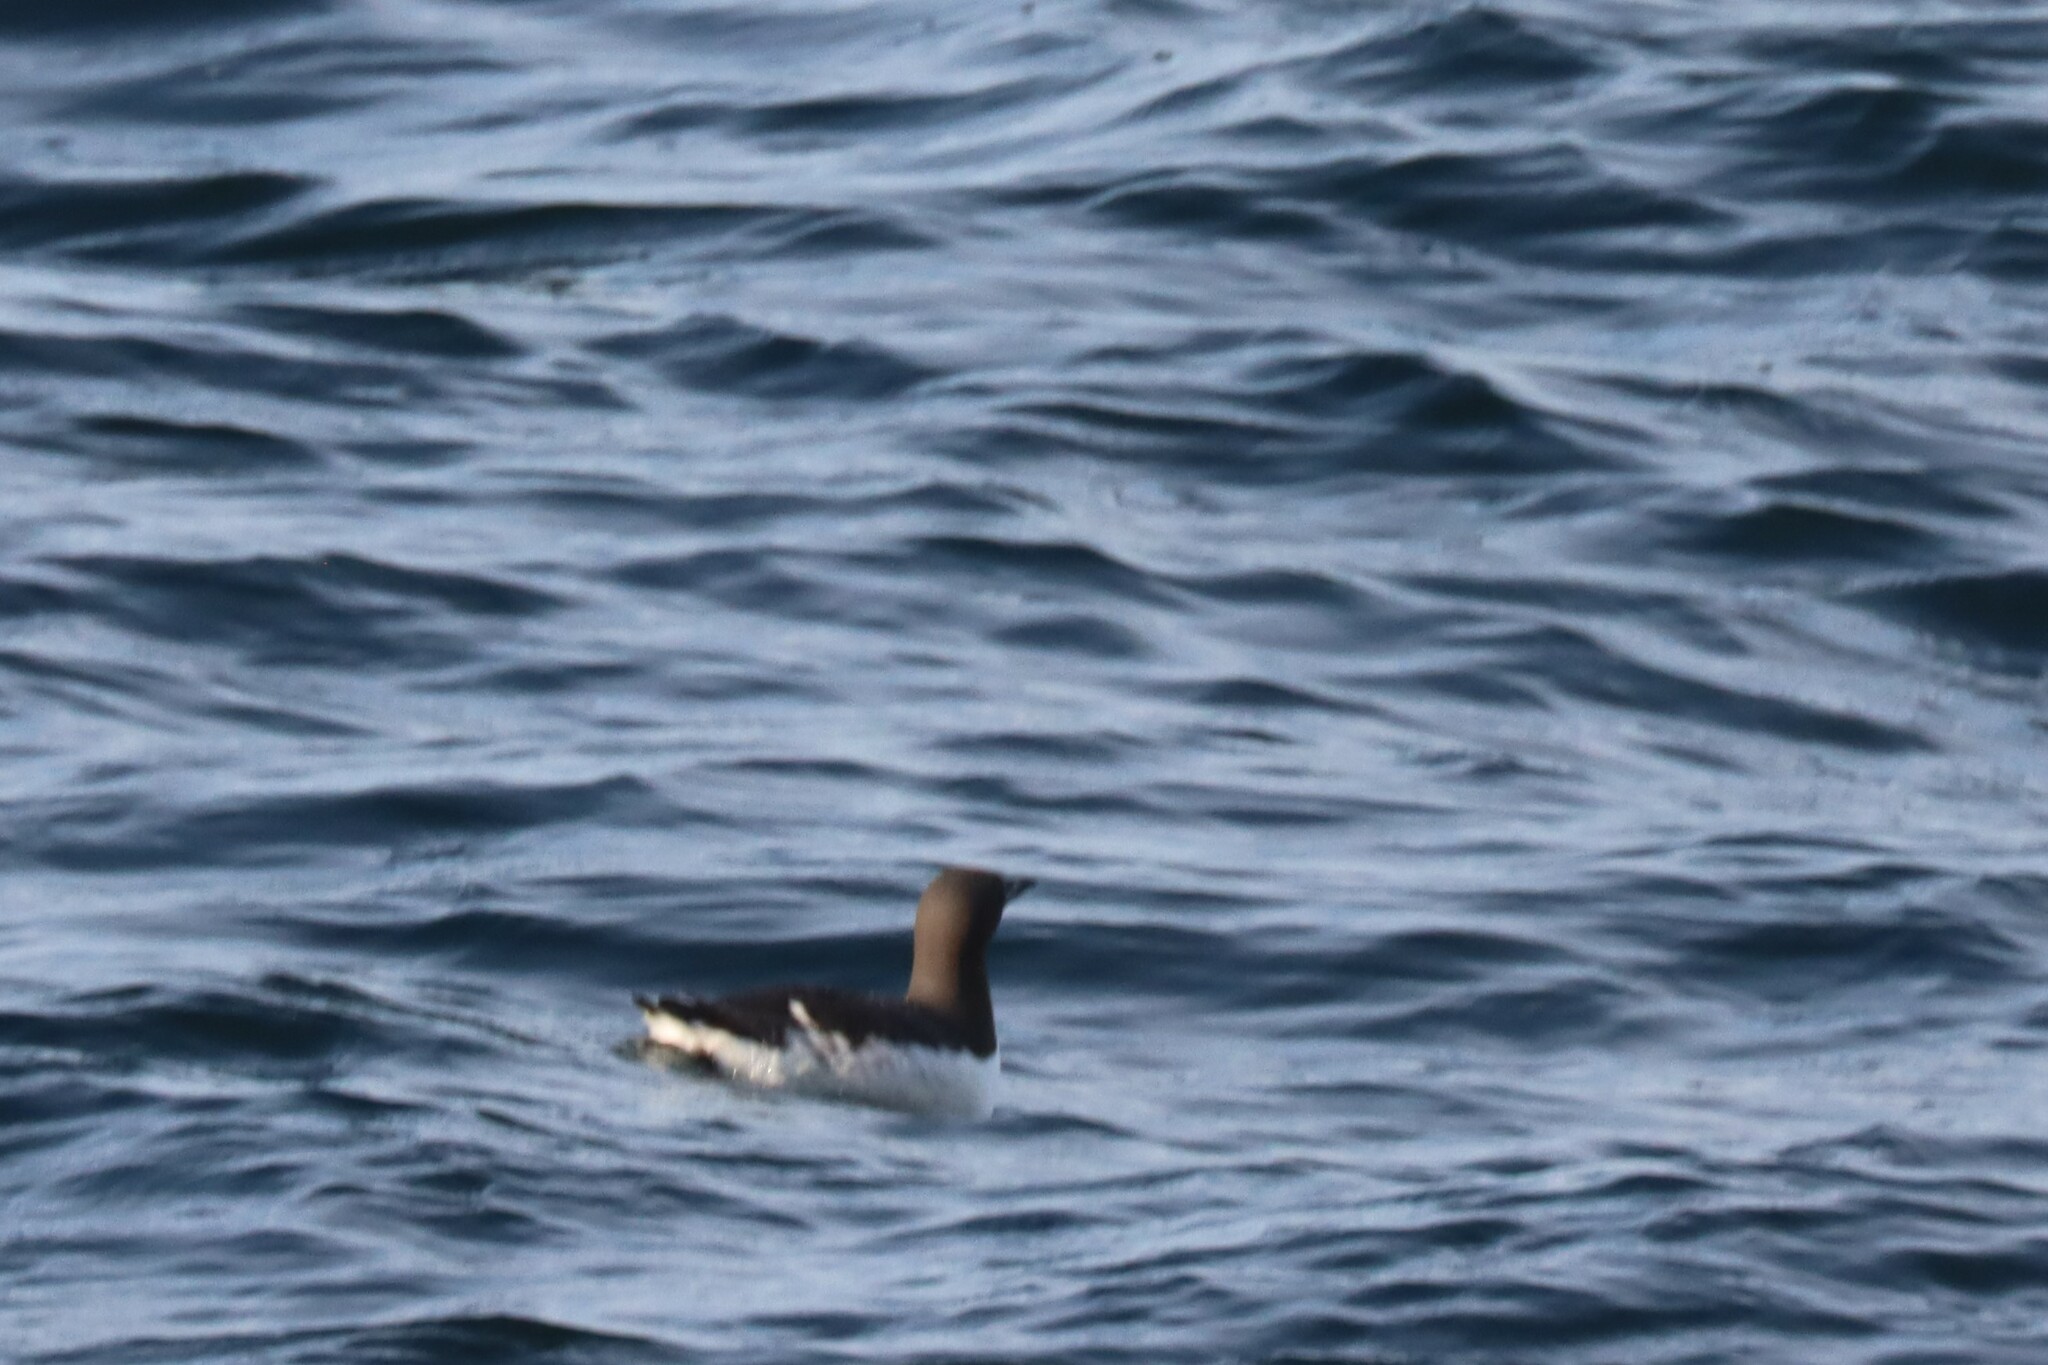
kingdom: Animalia
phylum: Chordata
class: Aves
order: Charadriiformes
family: Alcidae
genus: Uria
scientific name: Uria aalge
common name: Common murre
